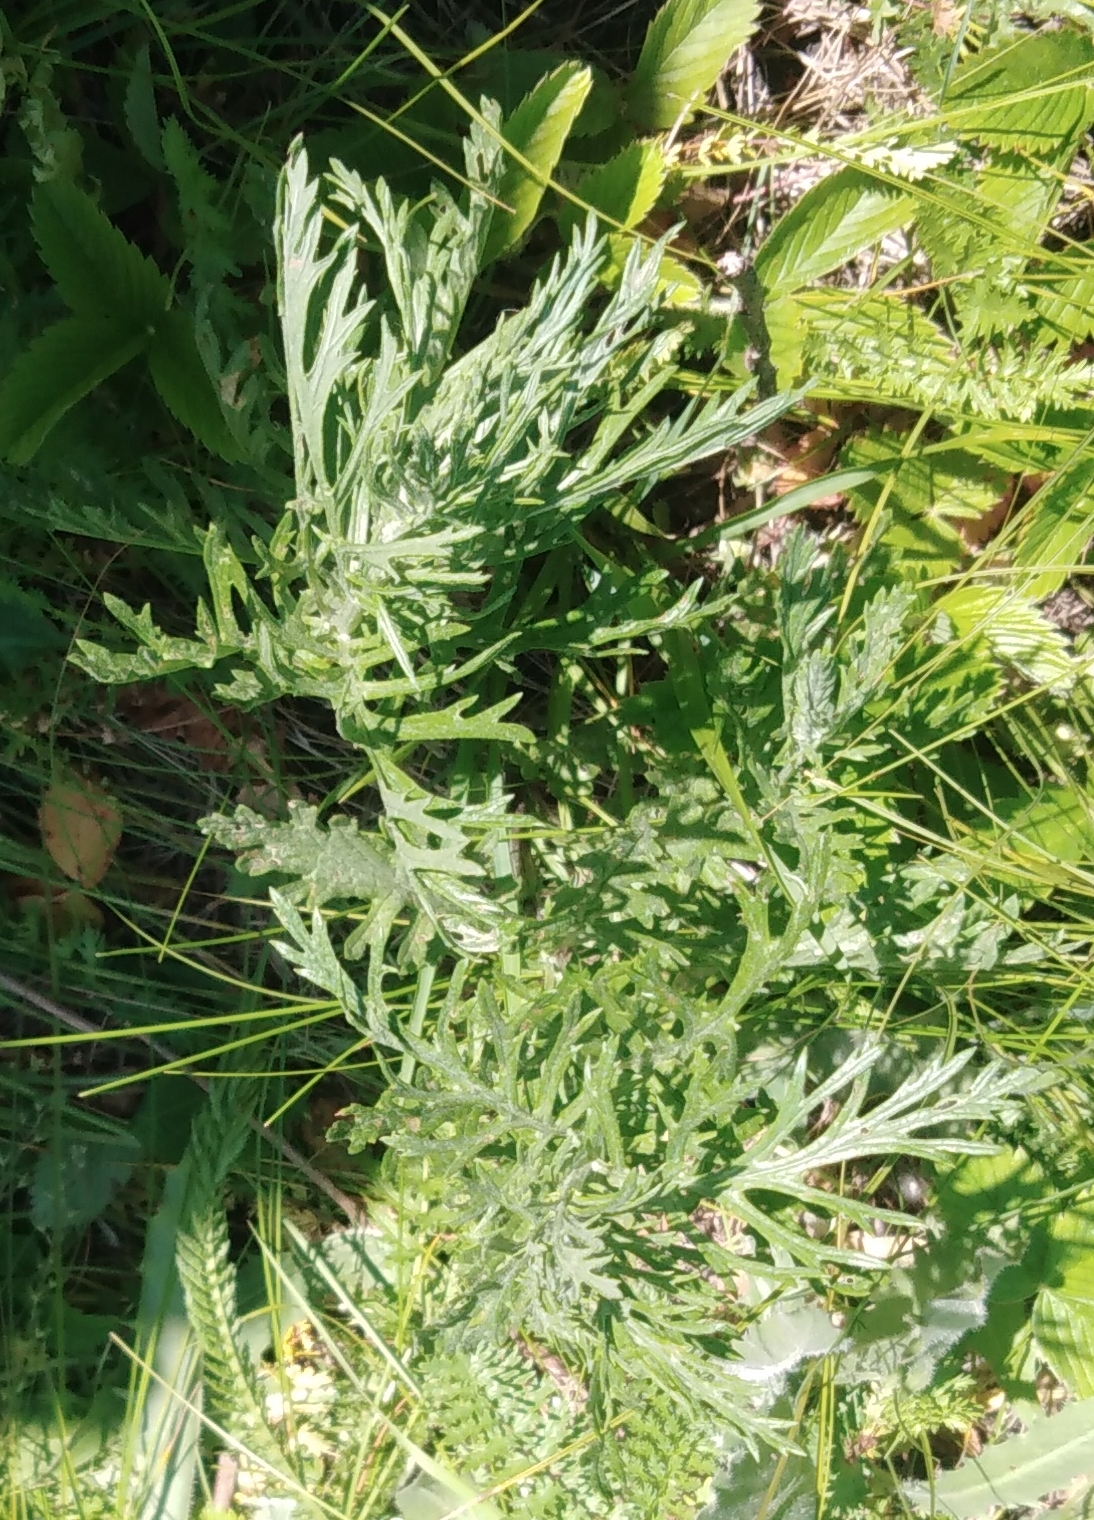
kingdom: Plantae
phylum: Tracheophyta
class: Magnoliopsida
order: Asterales
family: Asteraceae
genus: Jacobaea
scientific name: Jacobaea erucifolia
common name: Hoary ragwort
